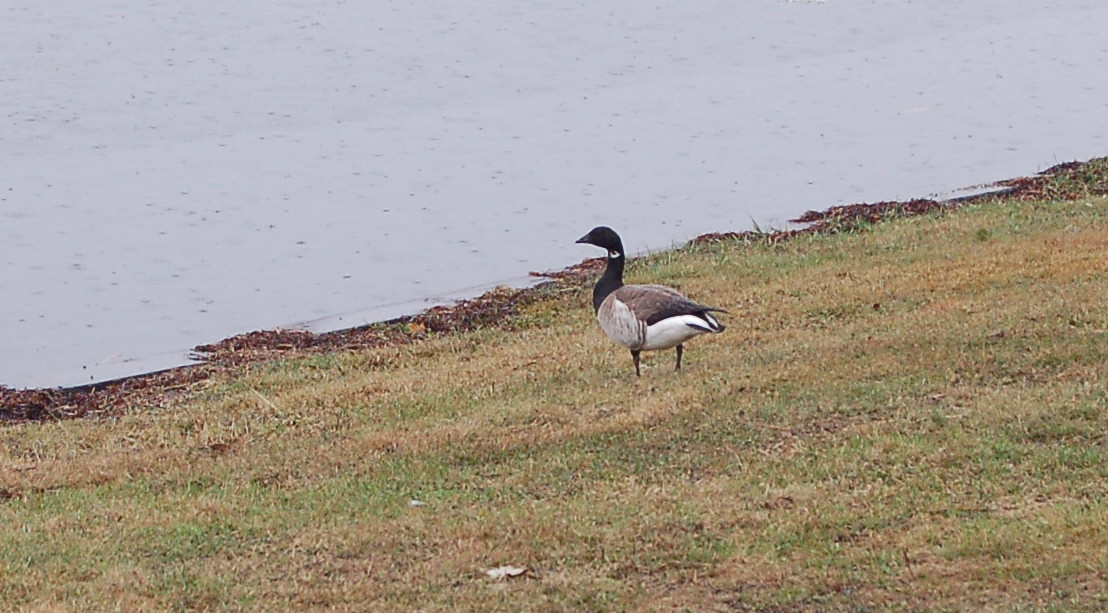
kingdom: Animalia
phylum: Chordata
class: Aves
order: Anseriformes
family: Anatidae
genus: Branta
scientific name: Branta bernicla
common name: Brant goose
